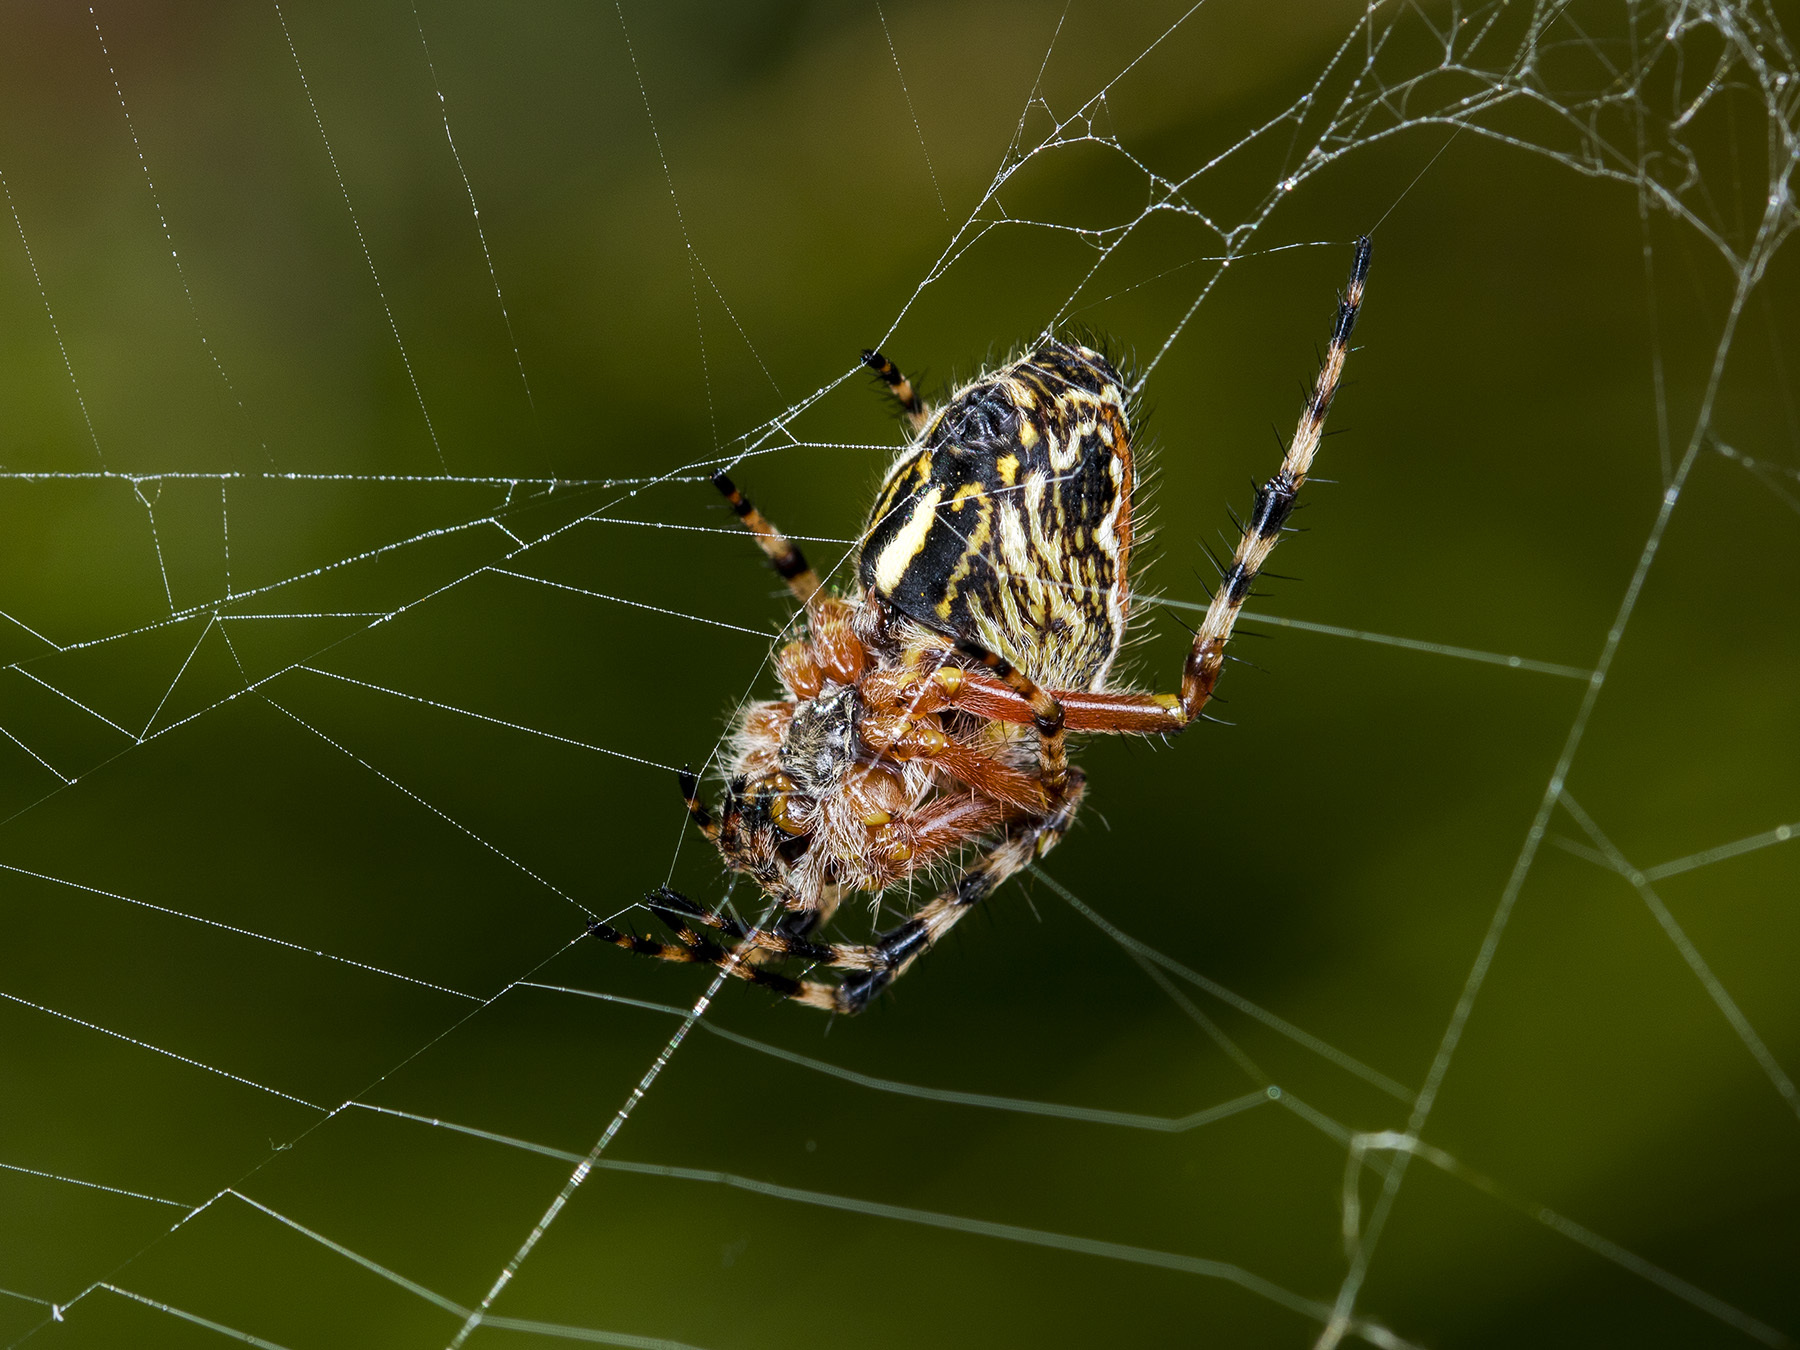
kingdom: Animalia
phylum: Arthropoda
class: Arachnida
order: Araneae
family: Araneidae
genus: Aculepeira
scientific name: Aculepeira packardi
